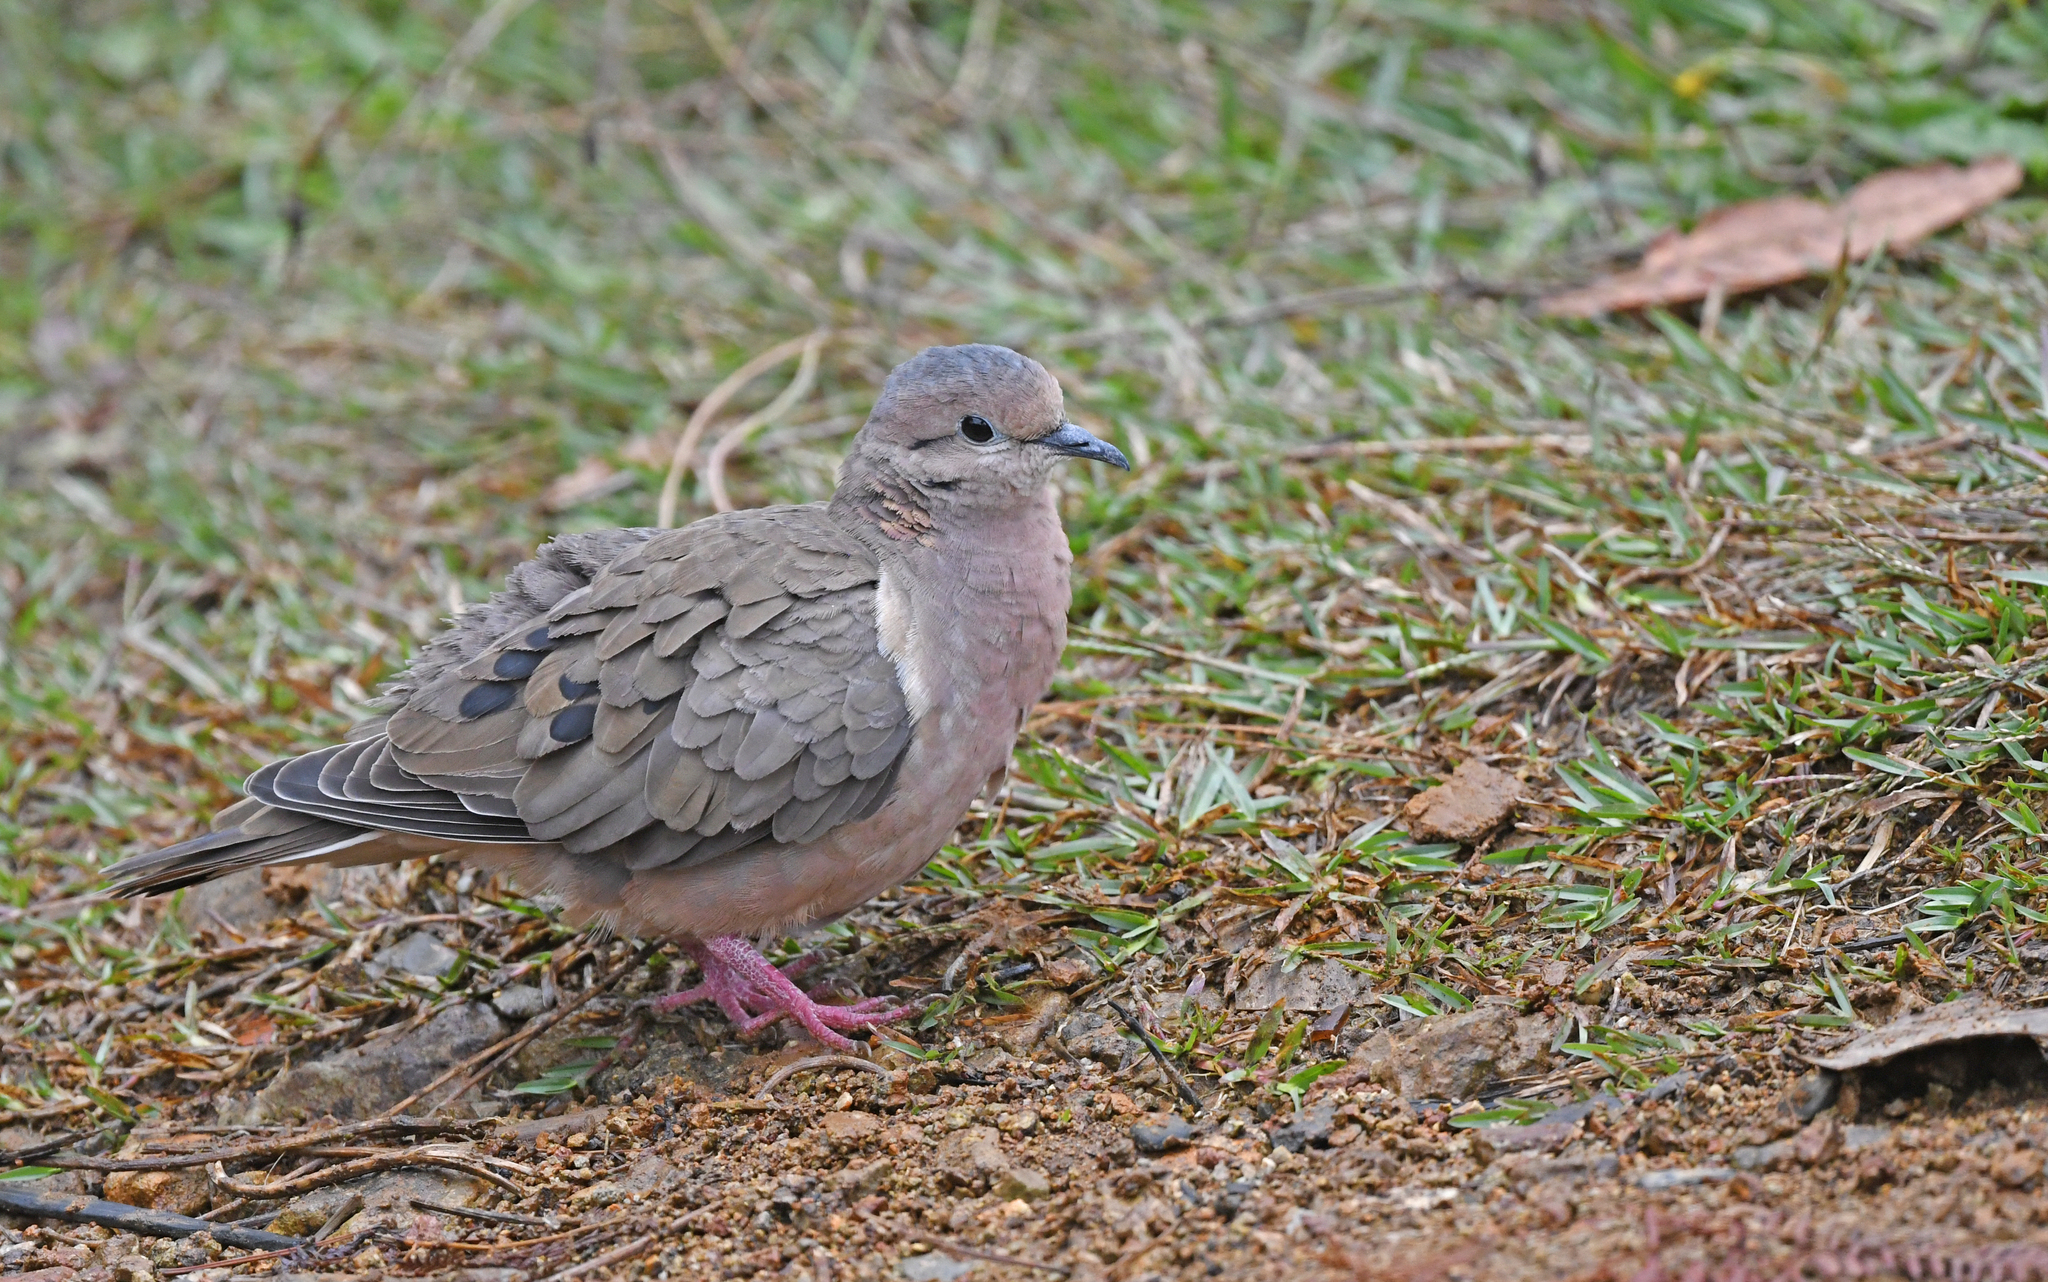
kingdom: Animalia
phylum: Chordata
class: Aves
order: Columbiformes
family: Columbidae
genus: Zenaida
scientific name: Zenaida auriculata
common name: Eared dove
